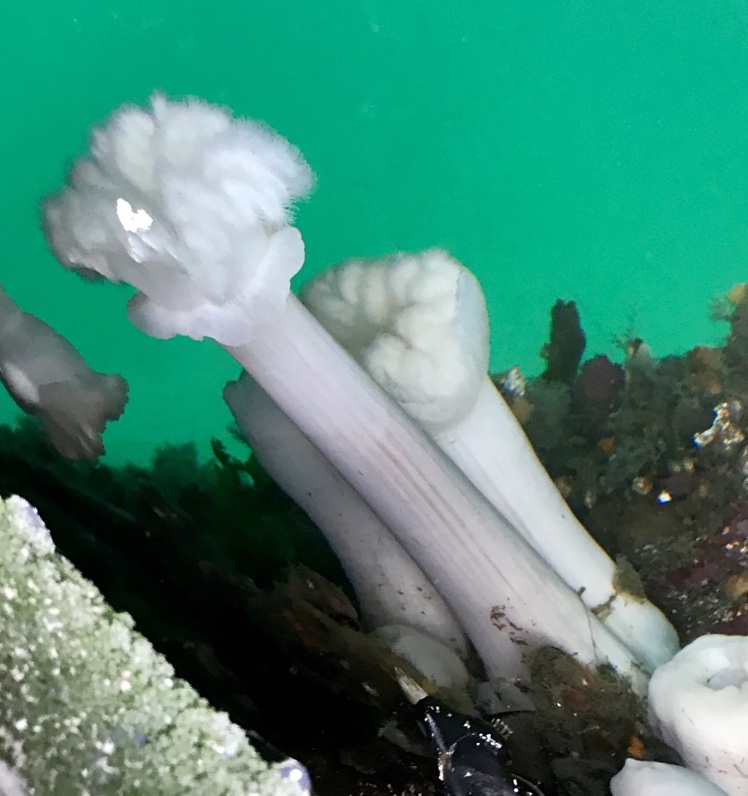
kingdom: Animalia
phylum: Cnidaria
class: Anthozoa
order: Actiniaria
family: Metridiidae
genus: Metridium
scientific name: Metridium farcimen
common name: Gigantic anemone
